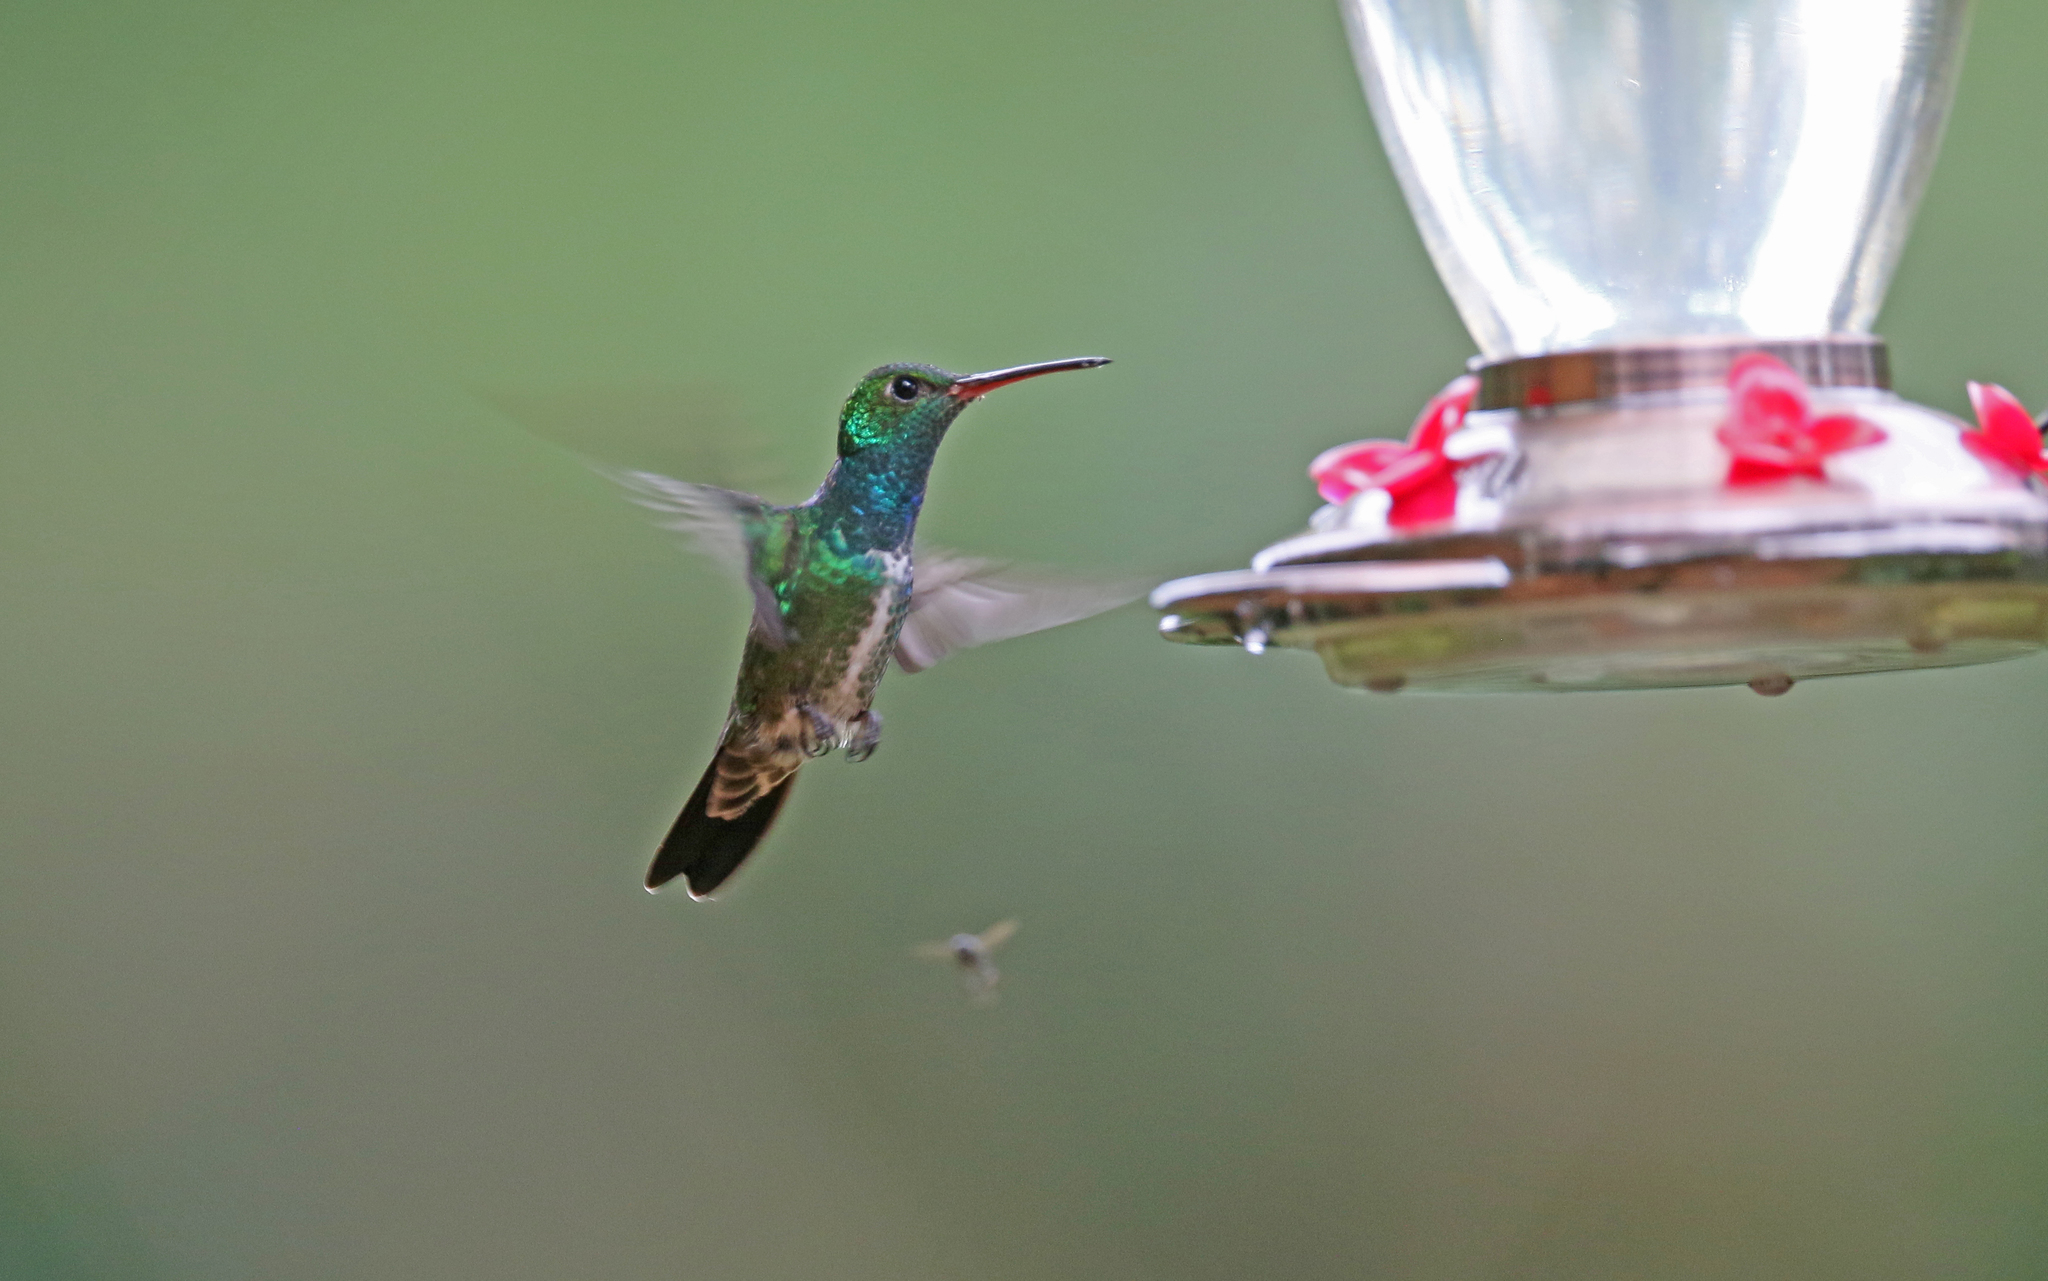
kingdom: Animalia
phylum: Chordata
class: Aves
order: Apodiformes
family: Trochilidae
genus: Chionomesa
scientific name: Chionomesa fimbriata
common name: Glittering-throated emerald
